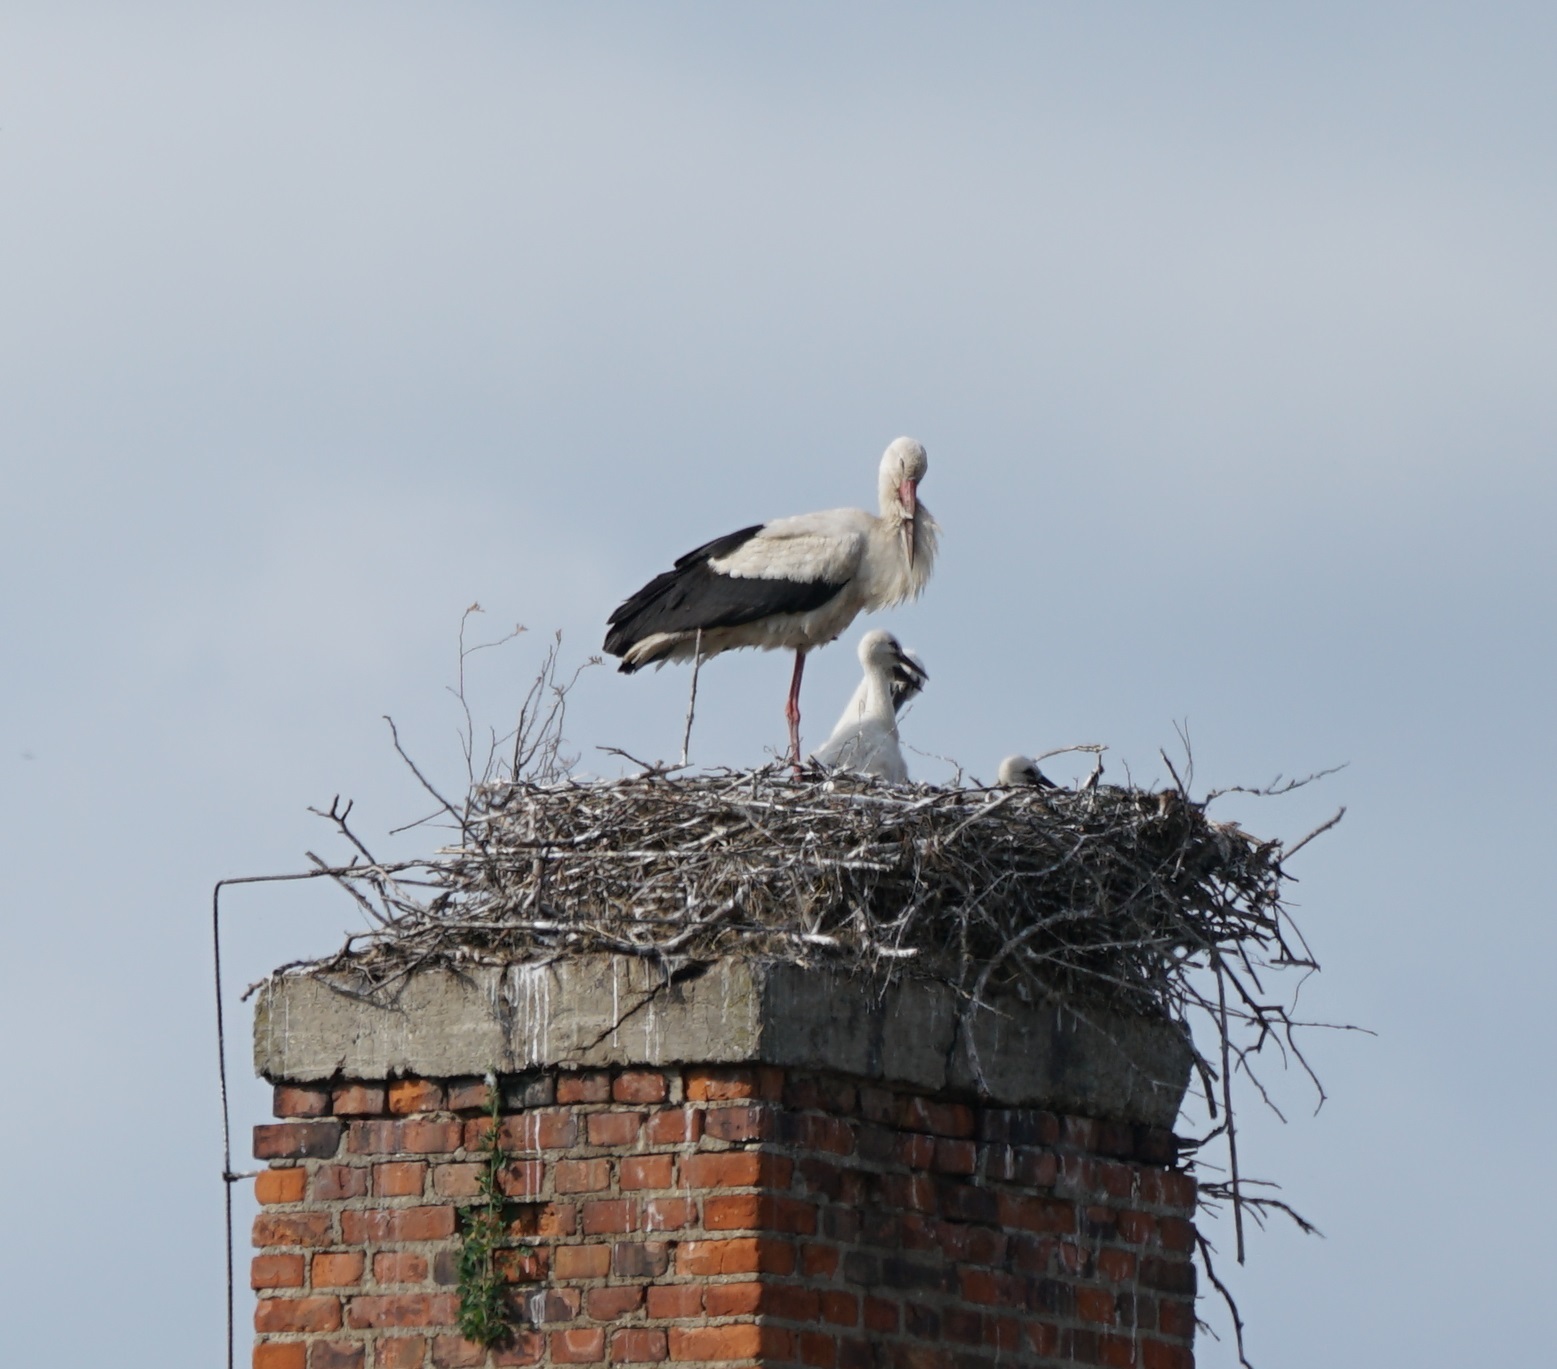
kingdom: Animalia
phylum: Chordata
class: Aves
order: Ciconiiformes
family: Ciconiidae
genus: Ciconia
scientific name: Ciconia ciconia
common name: White stork
